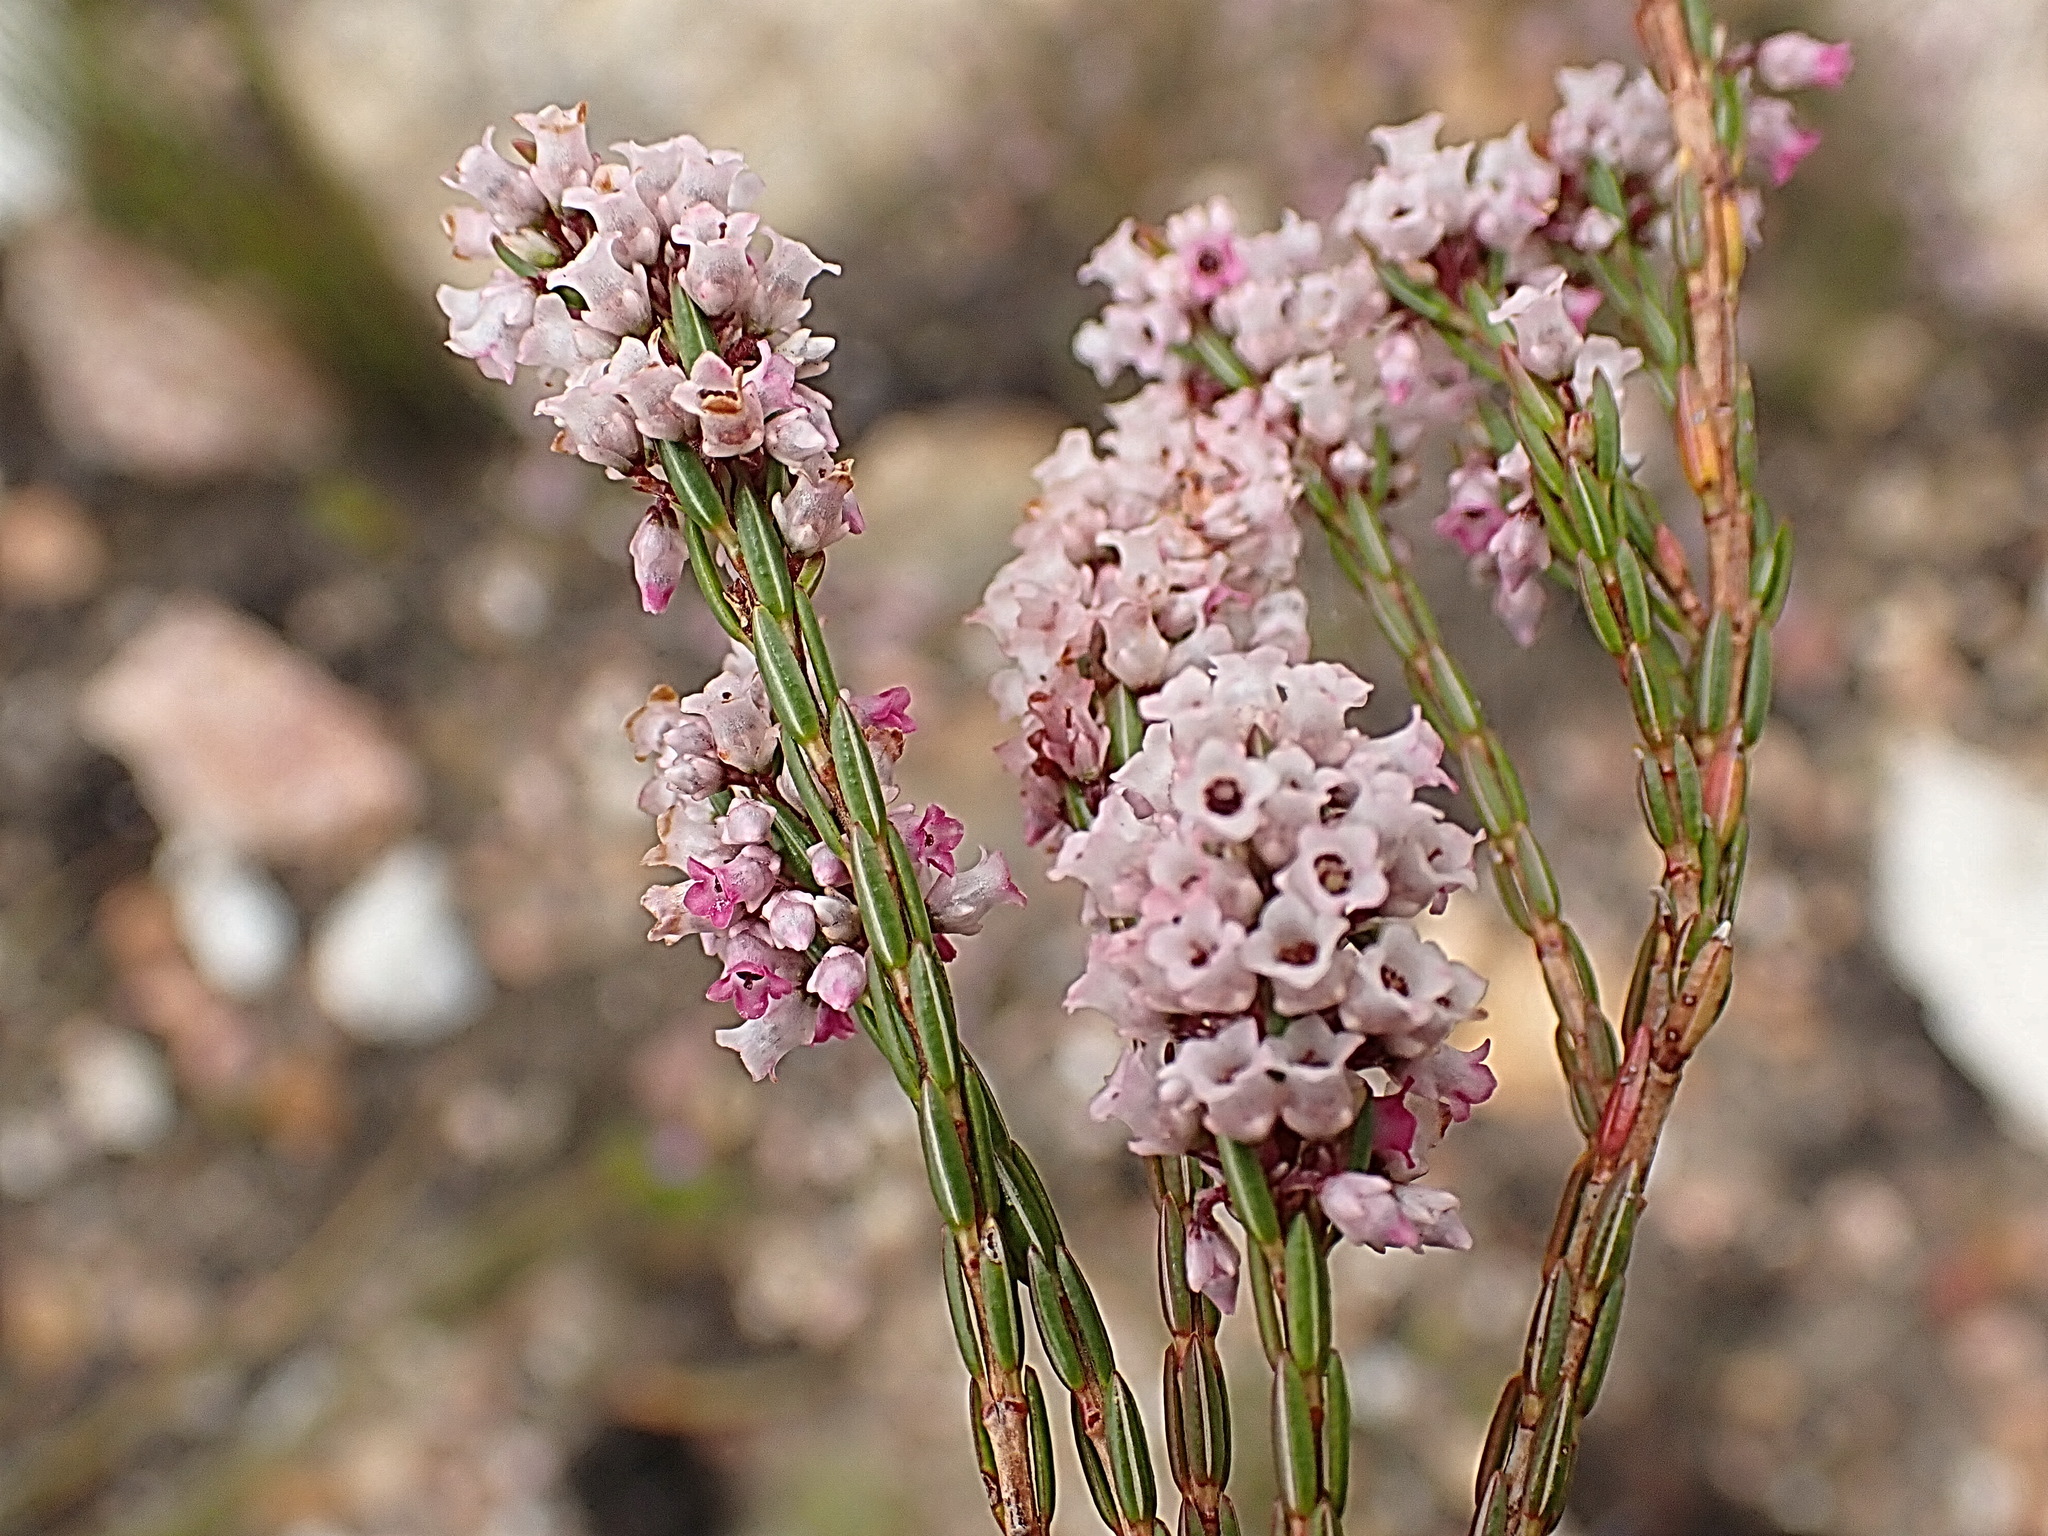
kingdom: Plantae
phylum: Tracheophyta
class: Magnoliopsida
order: Ericales
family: Ericaceae
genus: Erica
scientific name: Erica articularis
